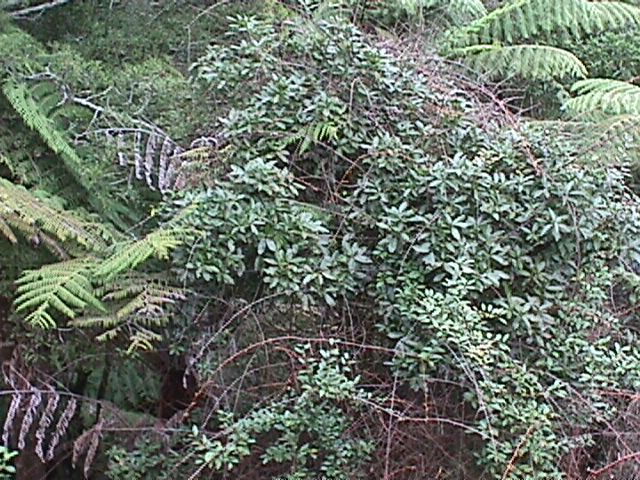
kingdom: Plantae
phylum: Tracheophyta
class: Magnoliopsida
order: Rosales
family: Elaeagnaceae
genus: Elaeagnus
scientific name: Elaeagnus reflexa
